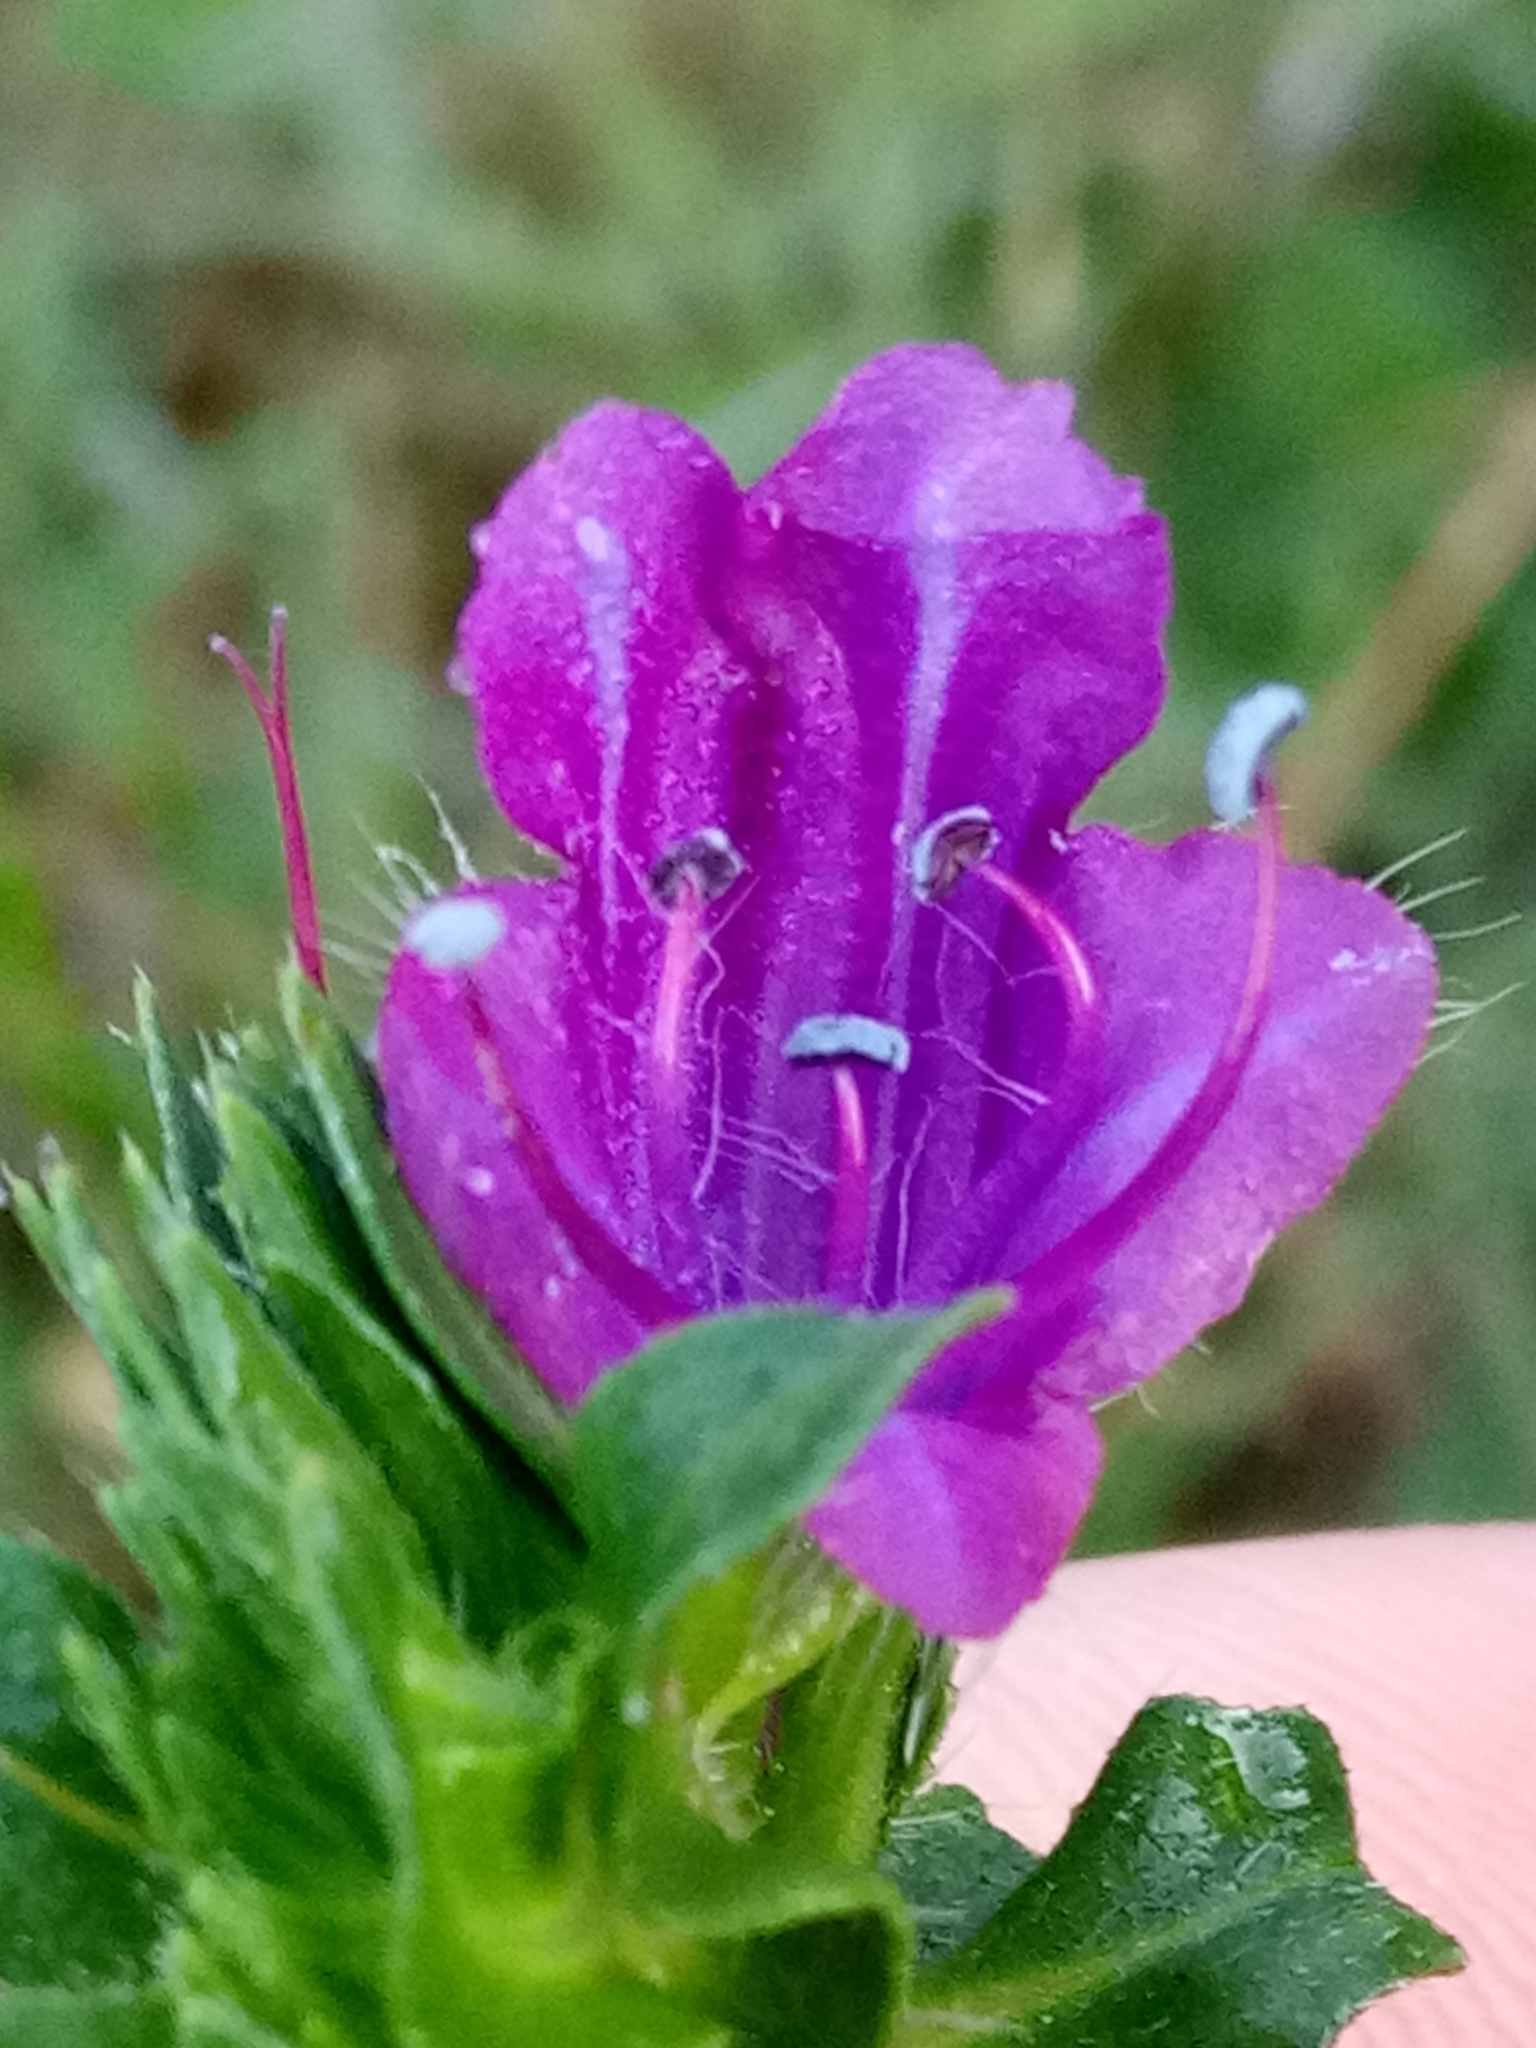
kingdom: Plantae
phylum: Tracheophyta
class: Magnoliopsida
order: Boraginales
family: Boraginaceae
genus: Echium
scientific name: Echium plantagineum
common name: Purple viper's-bugloss
